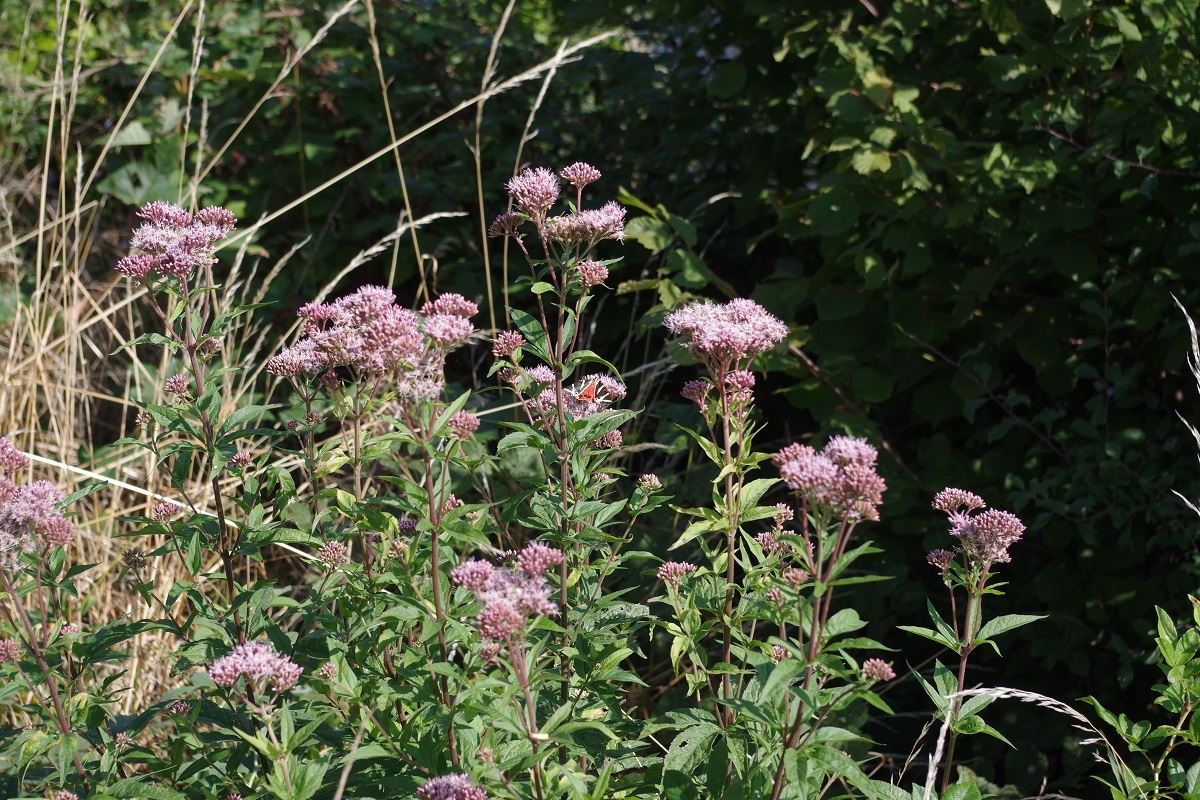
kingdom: Plantae
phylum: Tracheophyta
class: Magnoliopsida
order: Asterales
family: Asteraceae
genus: Eupatorium
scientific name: Eupatorium cannabinum
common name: Hemp-agrimony
